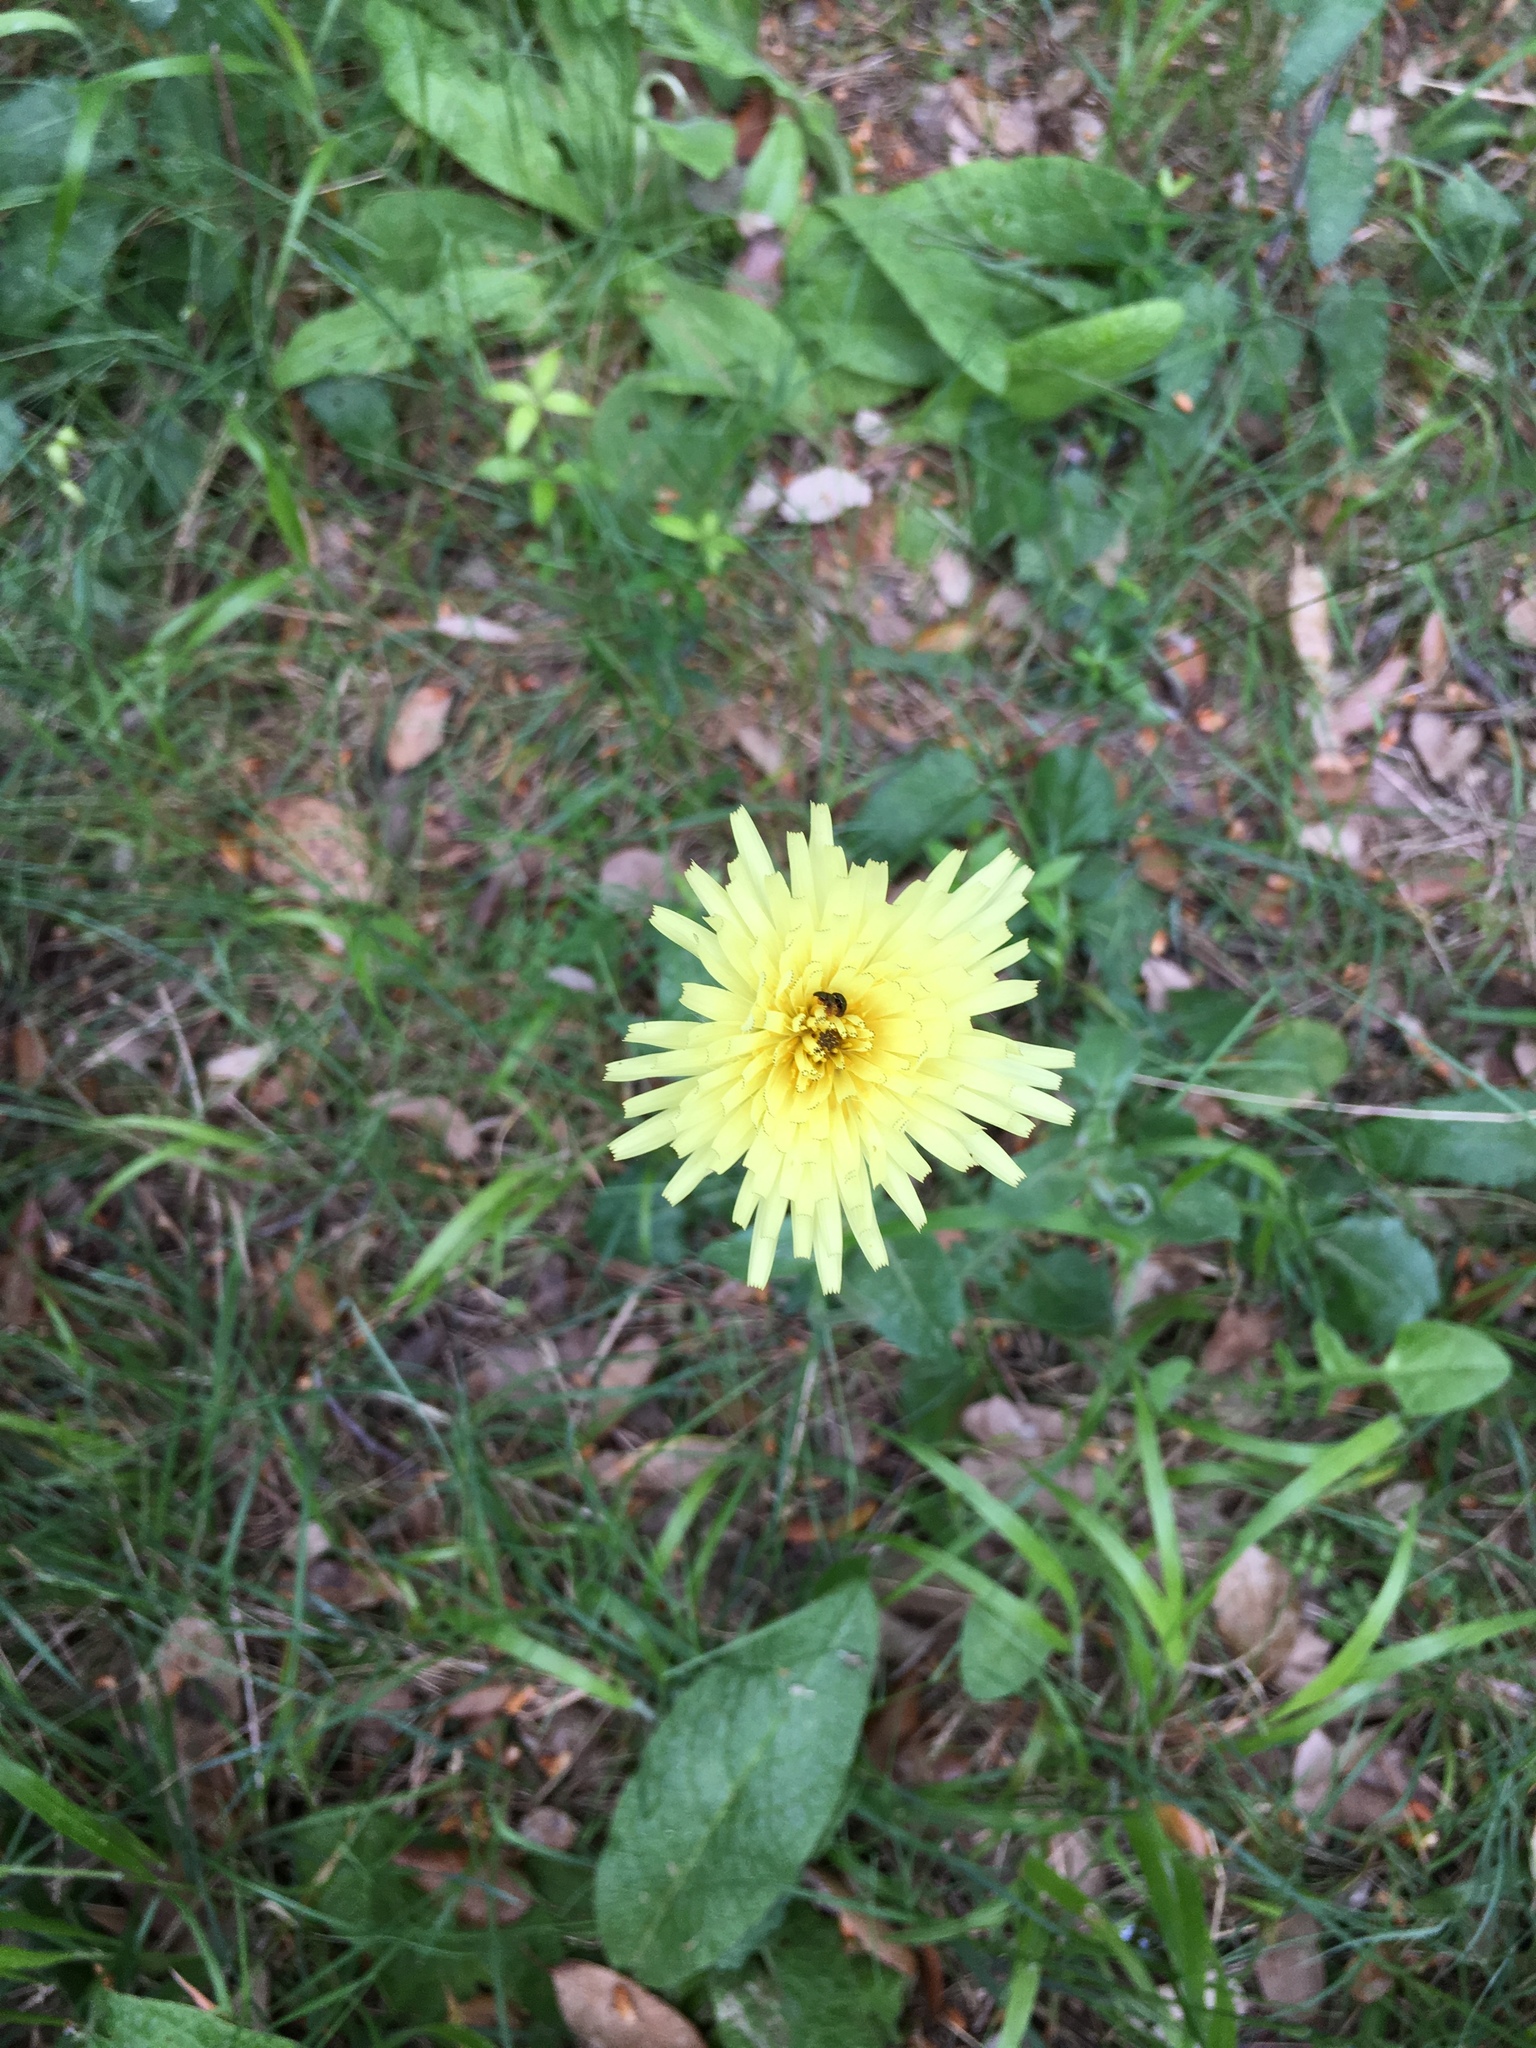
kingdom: Plantae
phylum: Tracheophyta
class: Magnoliopsida
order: Asterales
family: Asteraceae
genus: Urospermum
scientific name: Urospermum dalechampii
